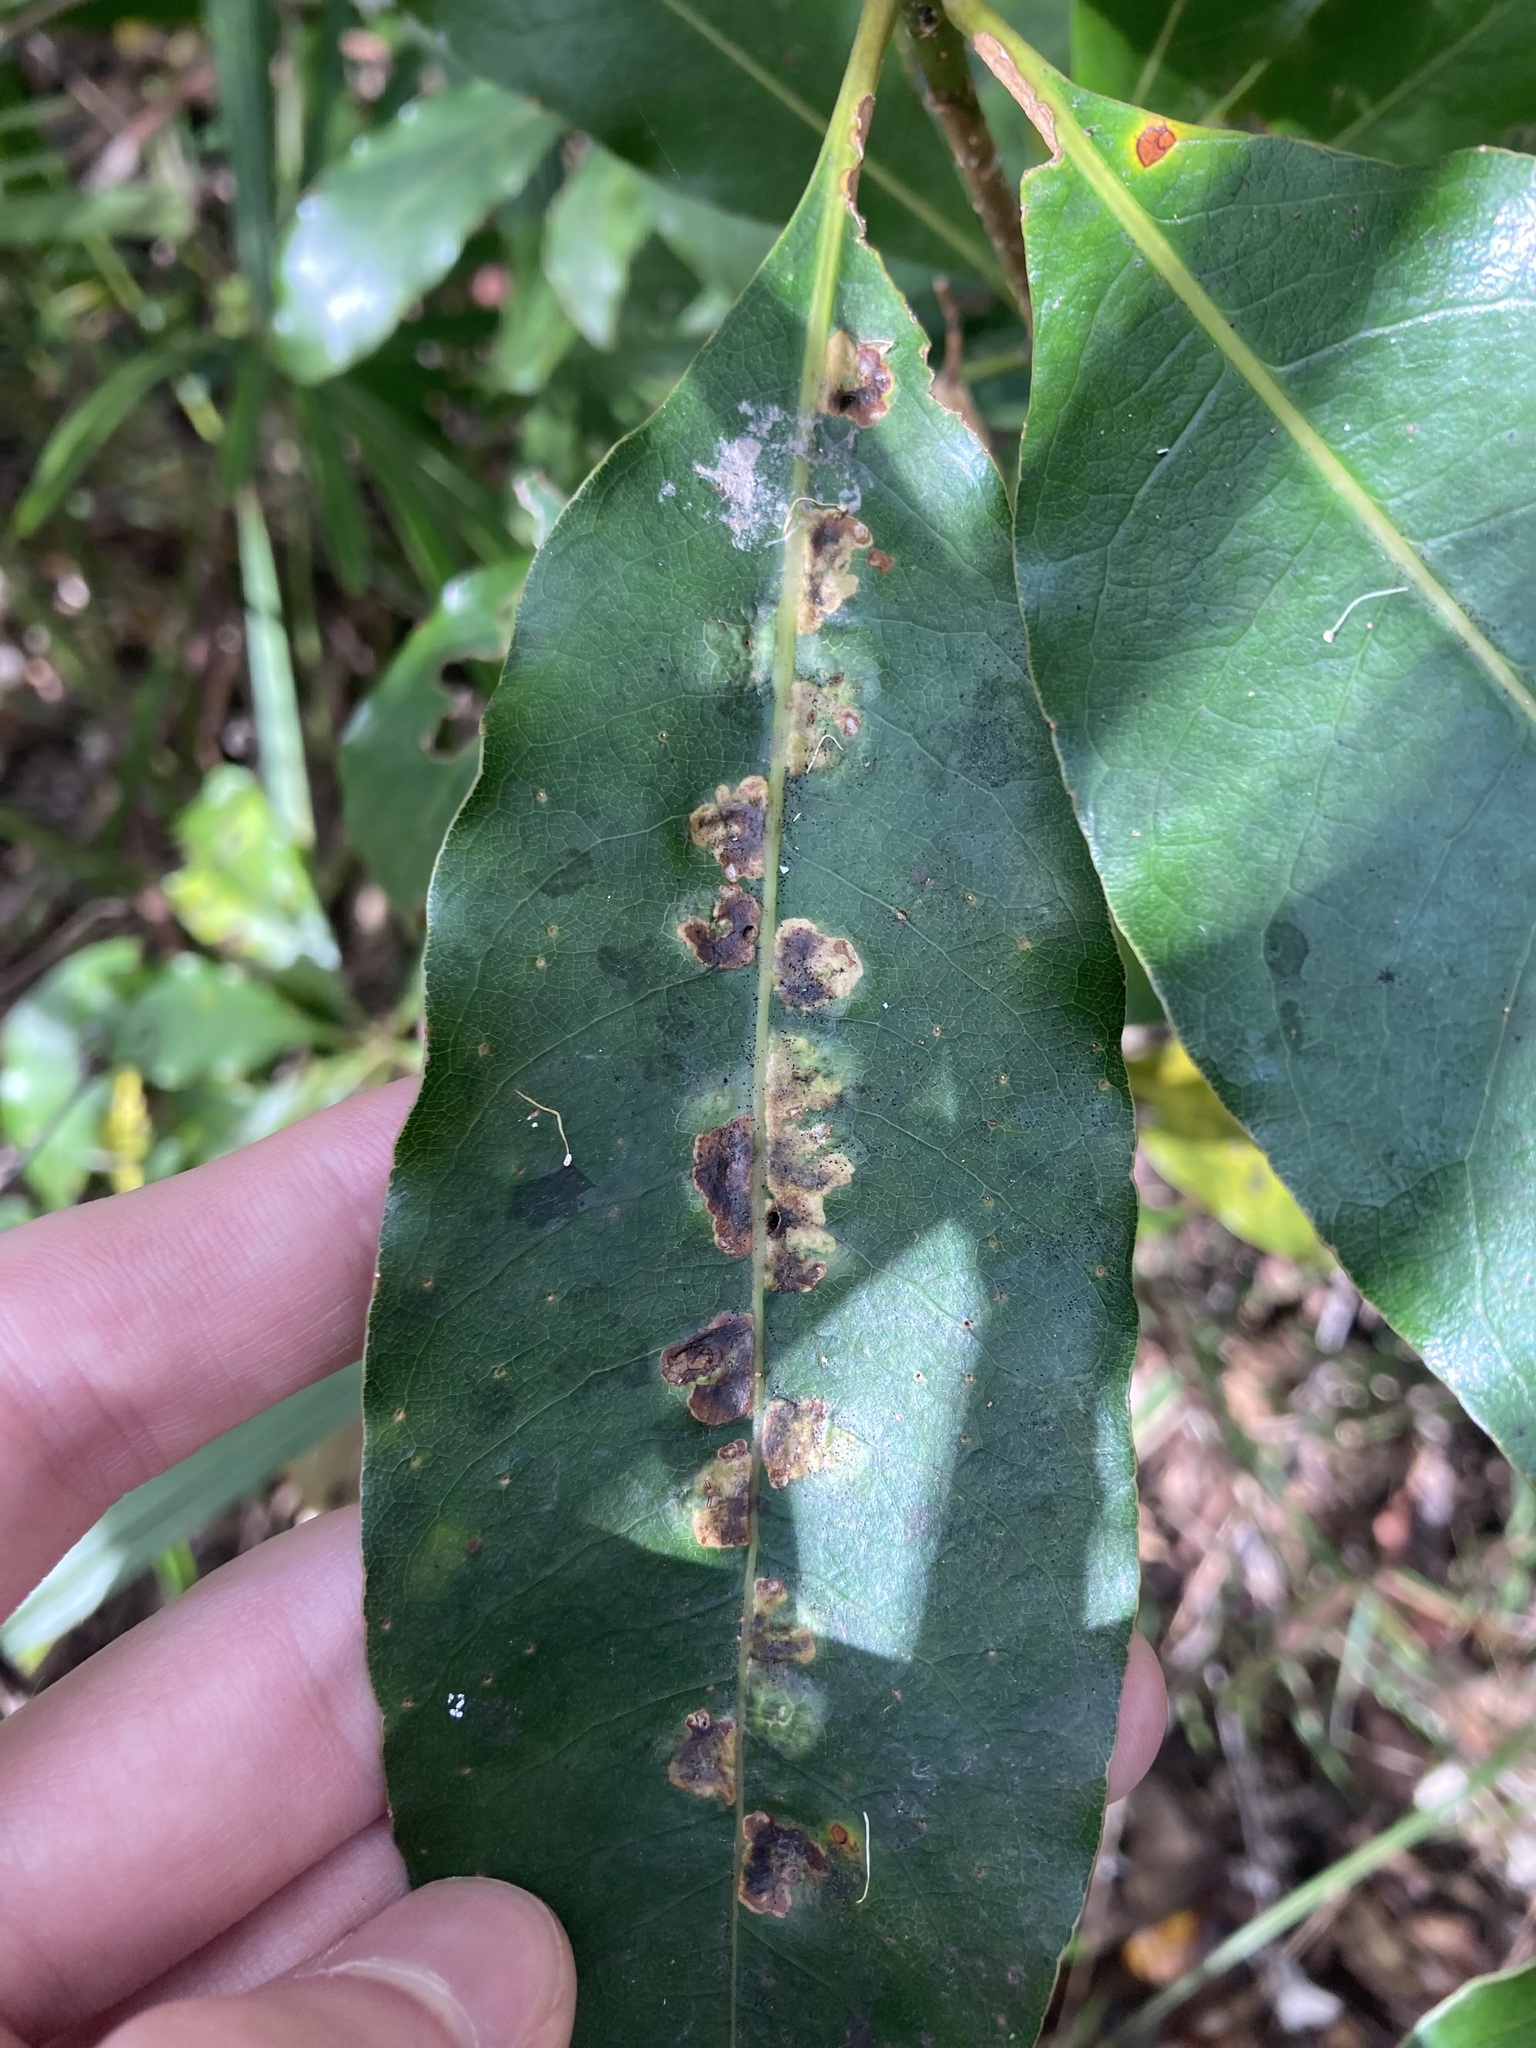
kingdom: Animalia
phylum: Arthropoda
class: Insecta
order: Diptera
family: Agromyzidae
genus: Phytoliriomyza
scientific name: Phytoliriomyza pittosporophylli
